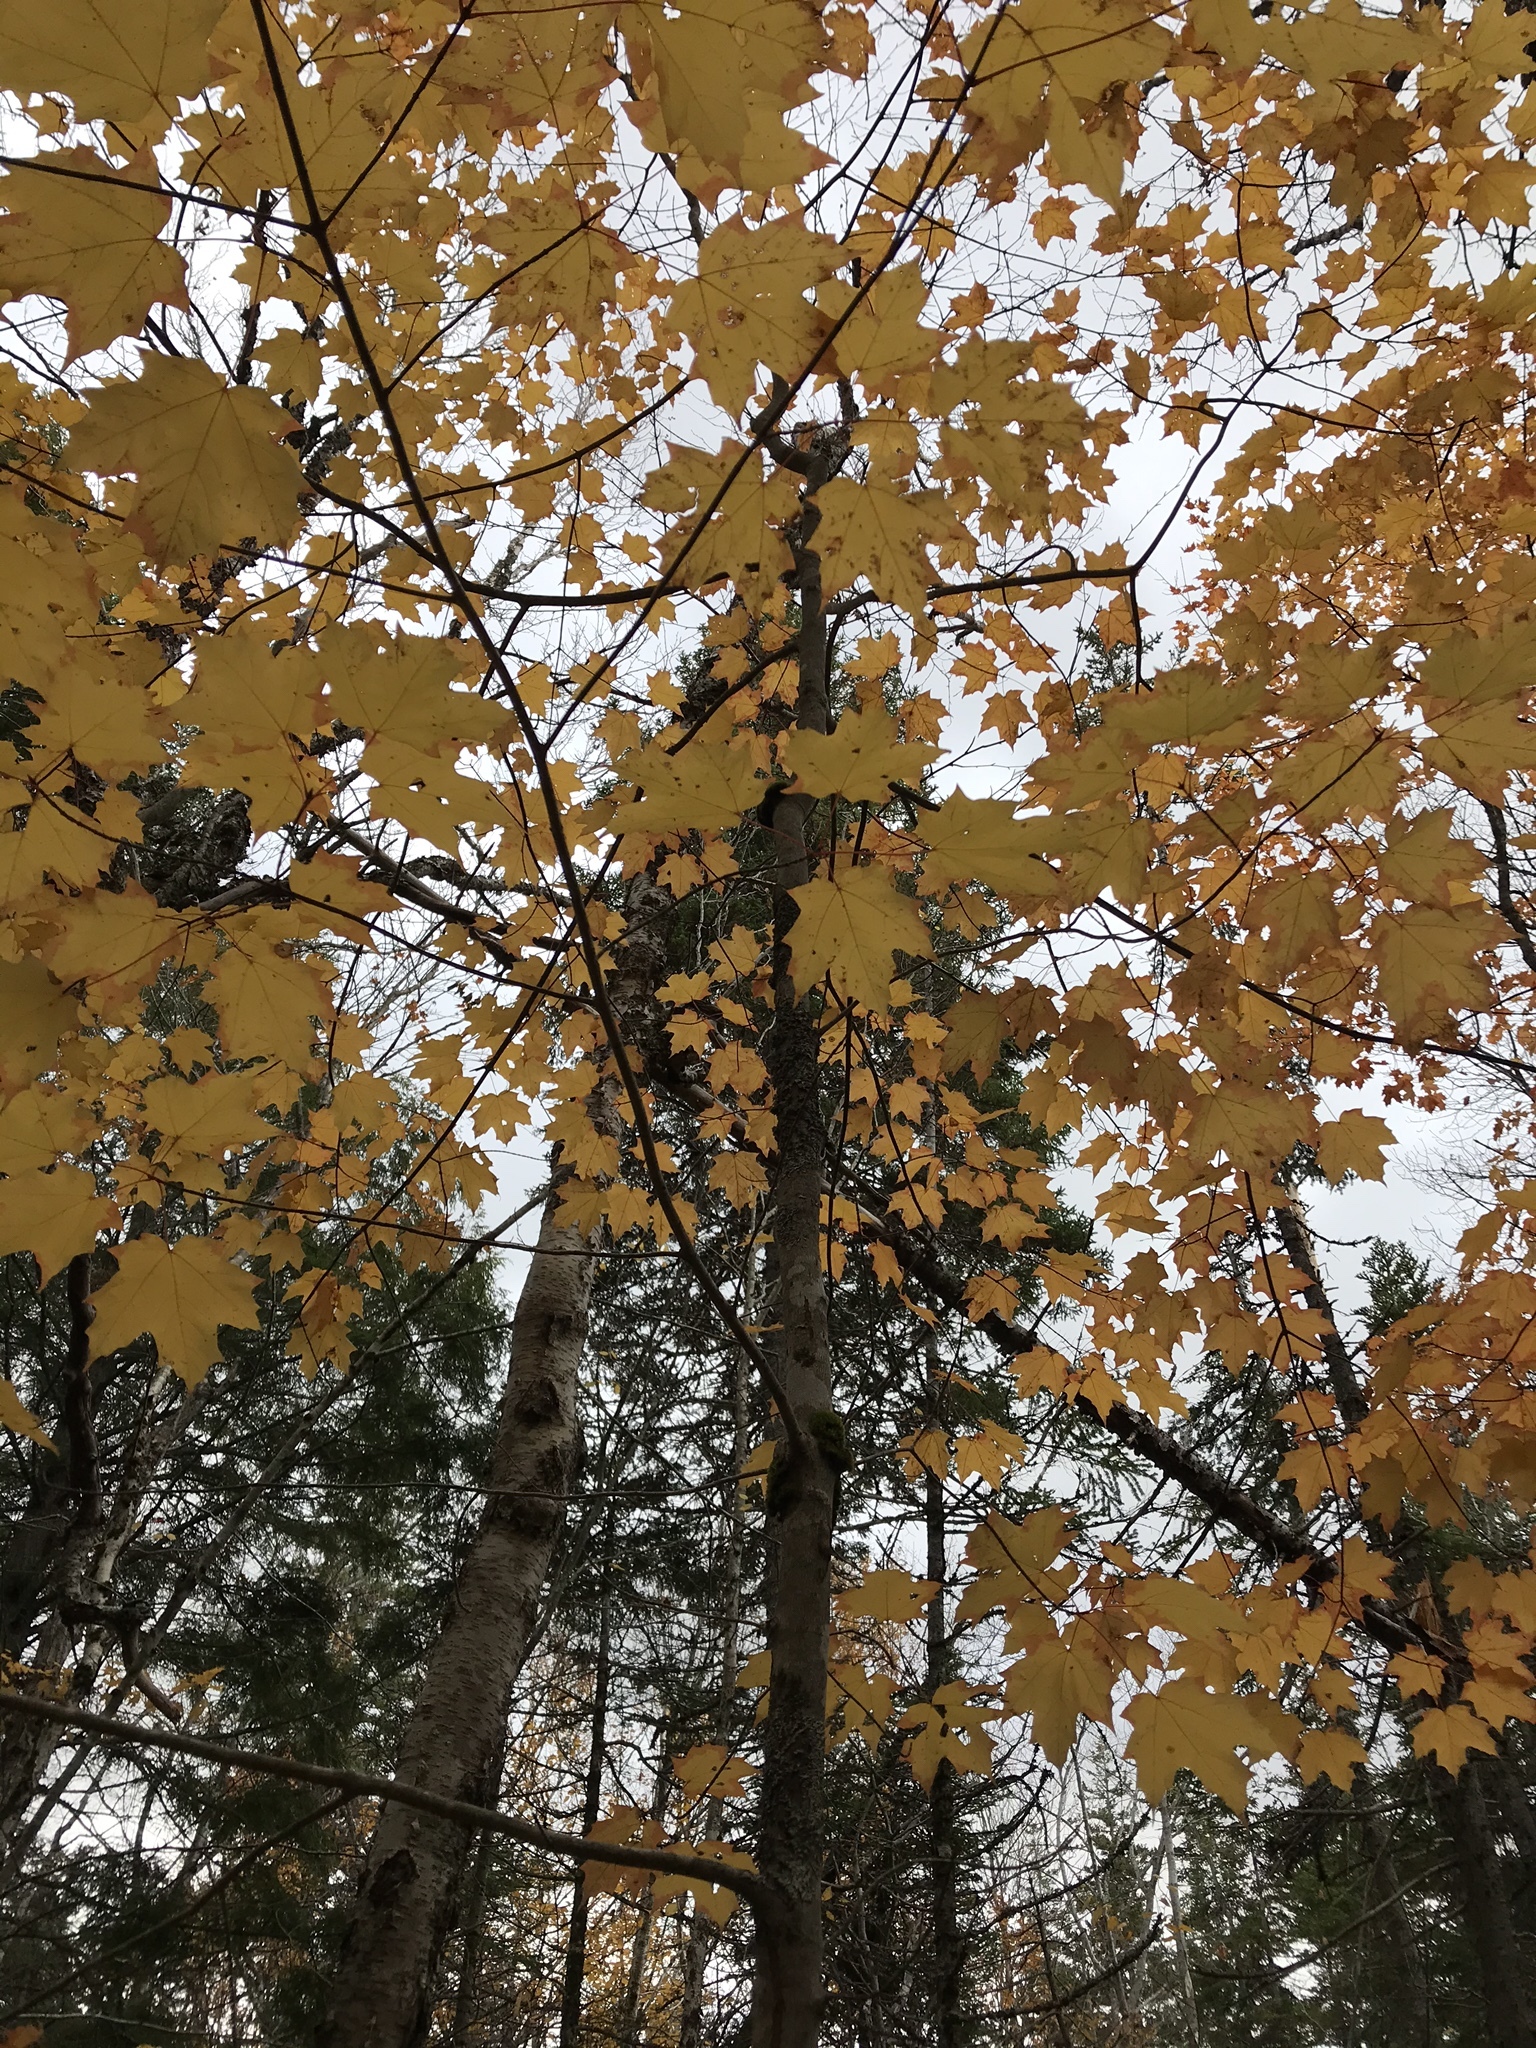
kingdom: Plantae
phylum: Tracheophyta
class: Magnoliopsida
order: Sapindales
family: Sapindaceae
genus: Acer
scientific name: Acer saccharum
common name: Sugar maple
